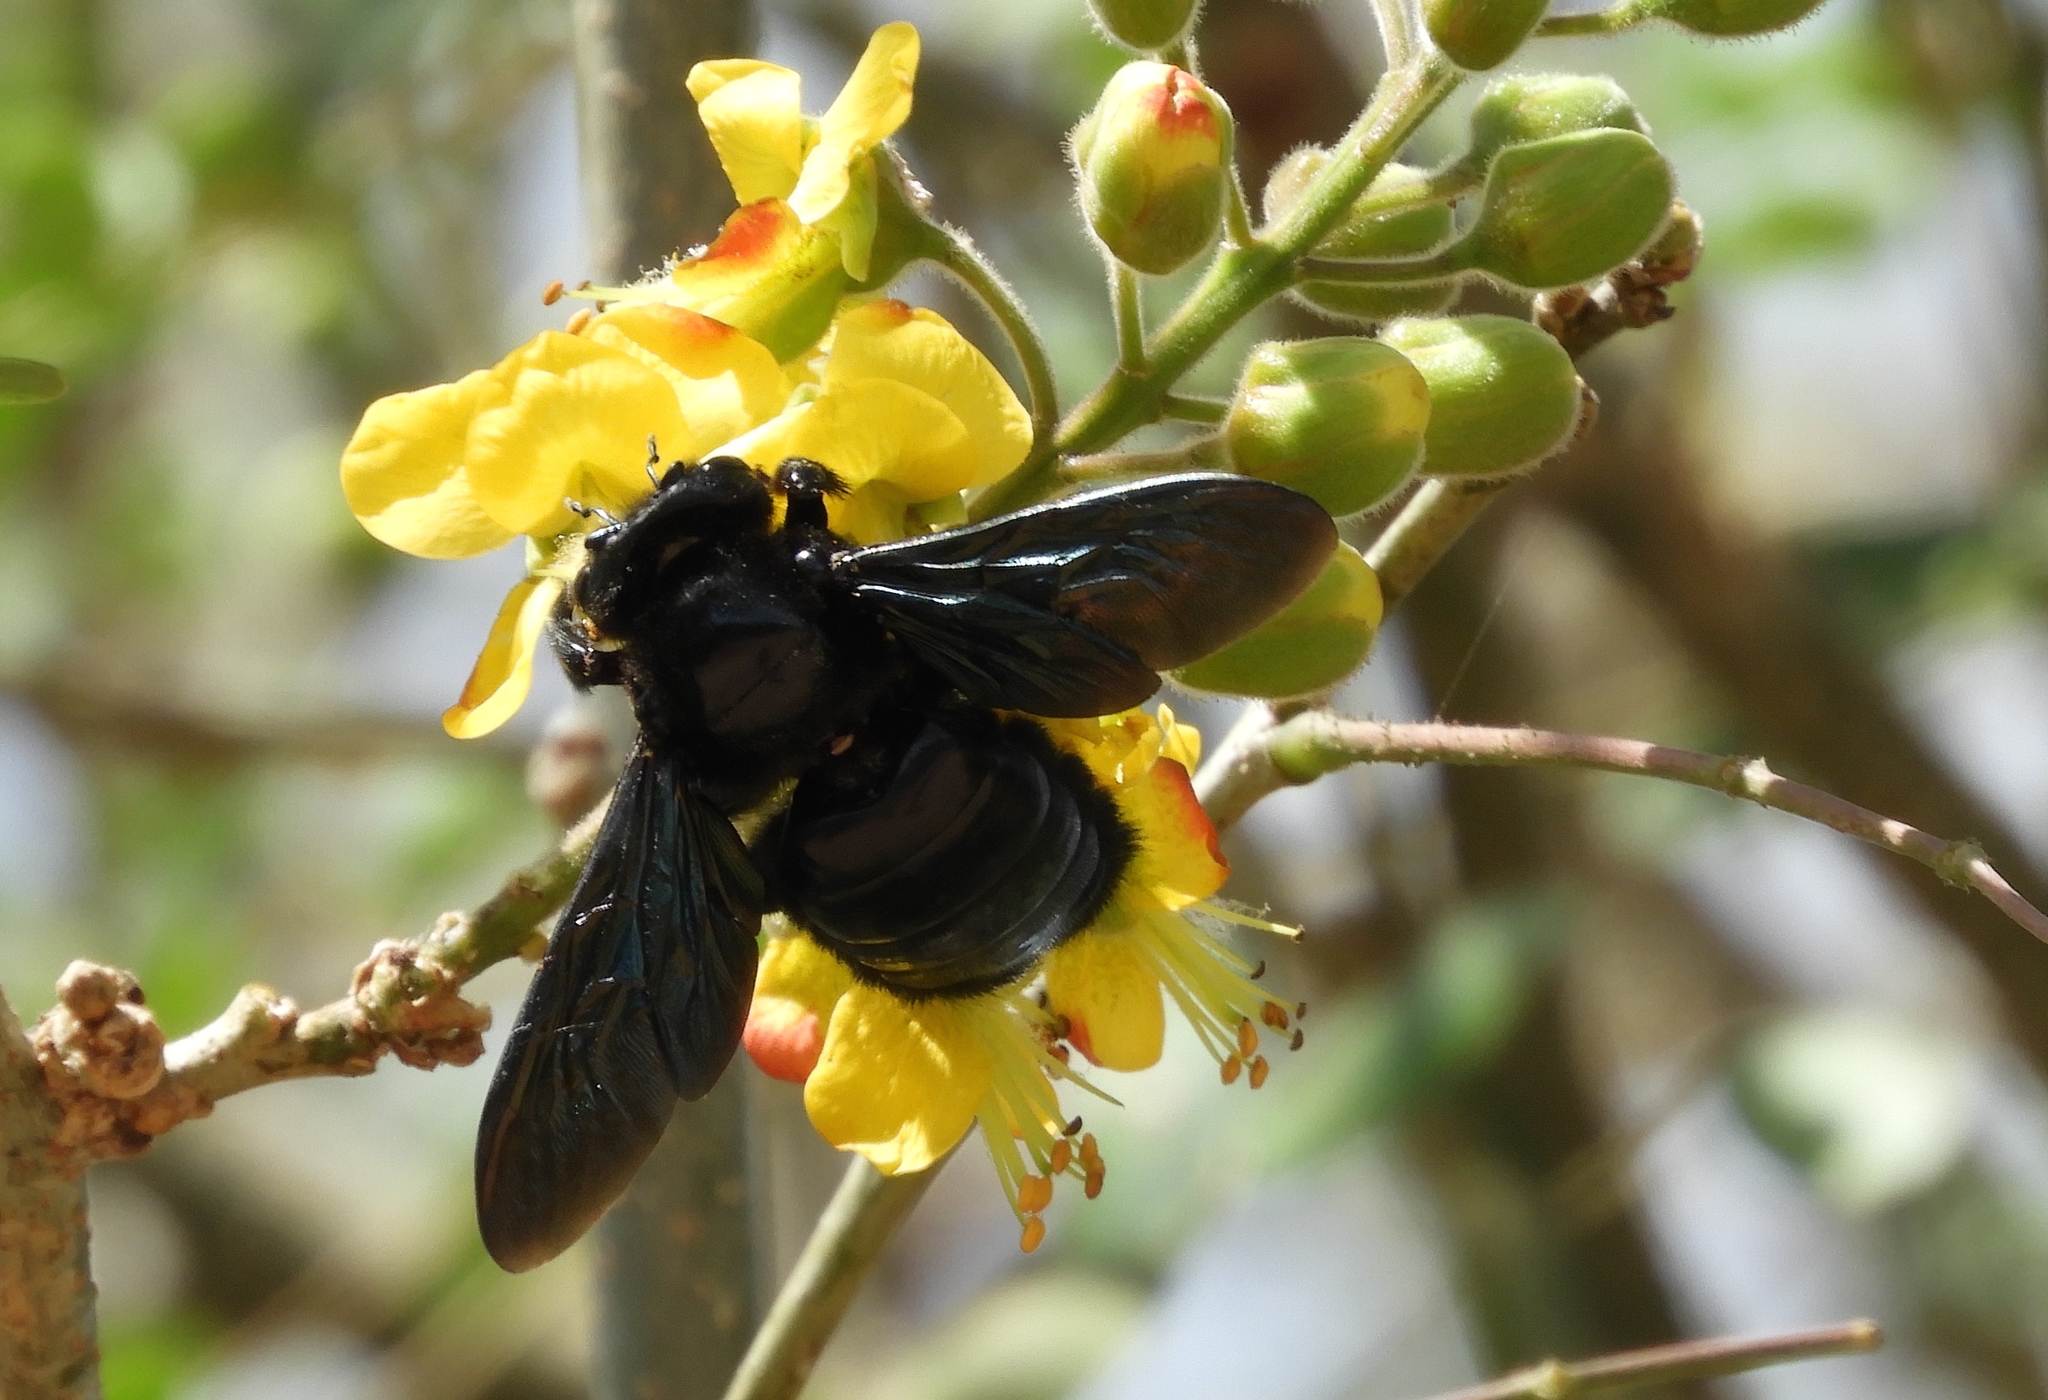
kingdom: Animalia
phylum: Arthropoda
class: Insecta
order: Hymenoptera
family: Apidae
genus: Xylocopa
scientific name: Xylocopa fimbriata
